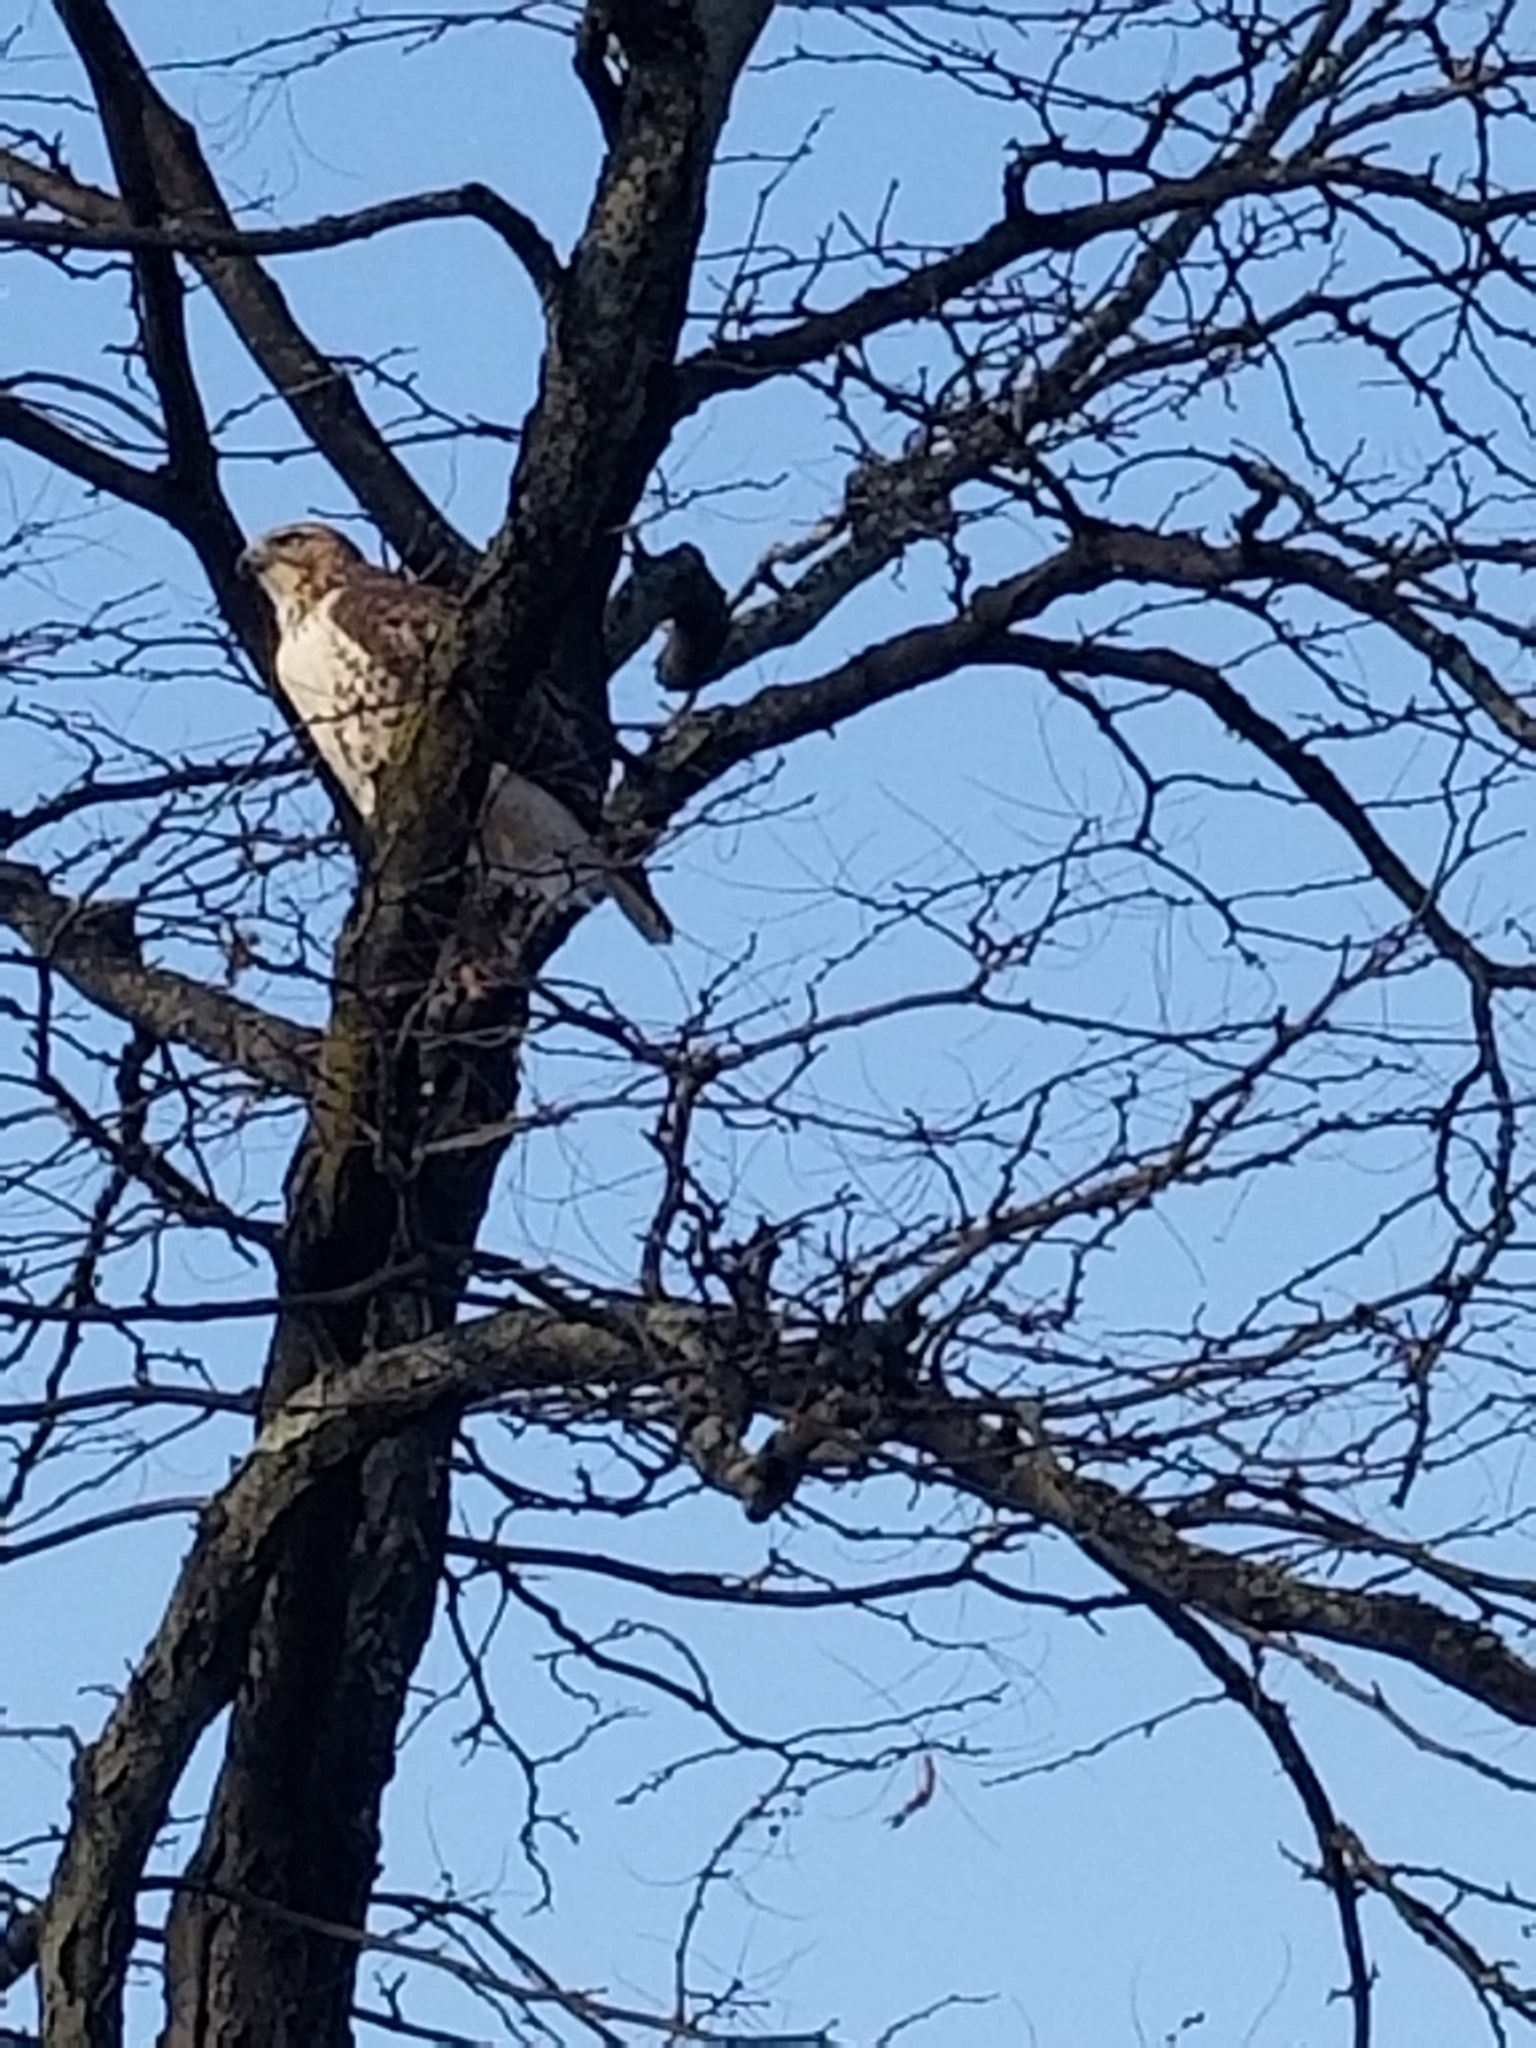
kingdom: Animalia
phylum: Chordata
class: Aves
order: Accipitriformes
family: Accipitridae
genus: Buteo
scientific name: Buteo jamaicensis
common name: Red-tailed hawk
